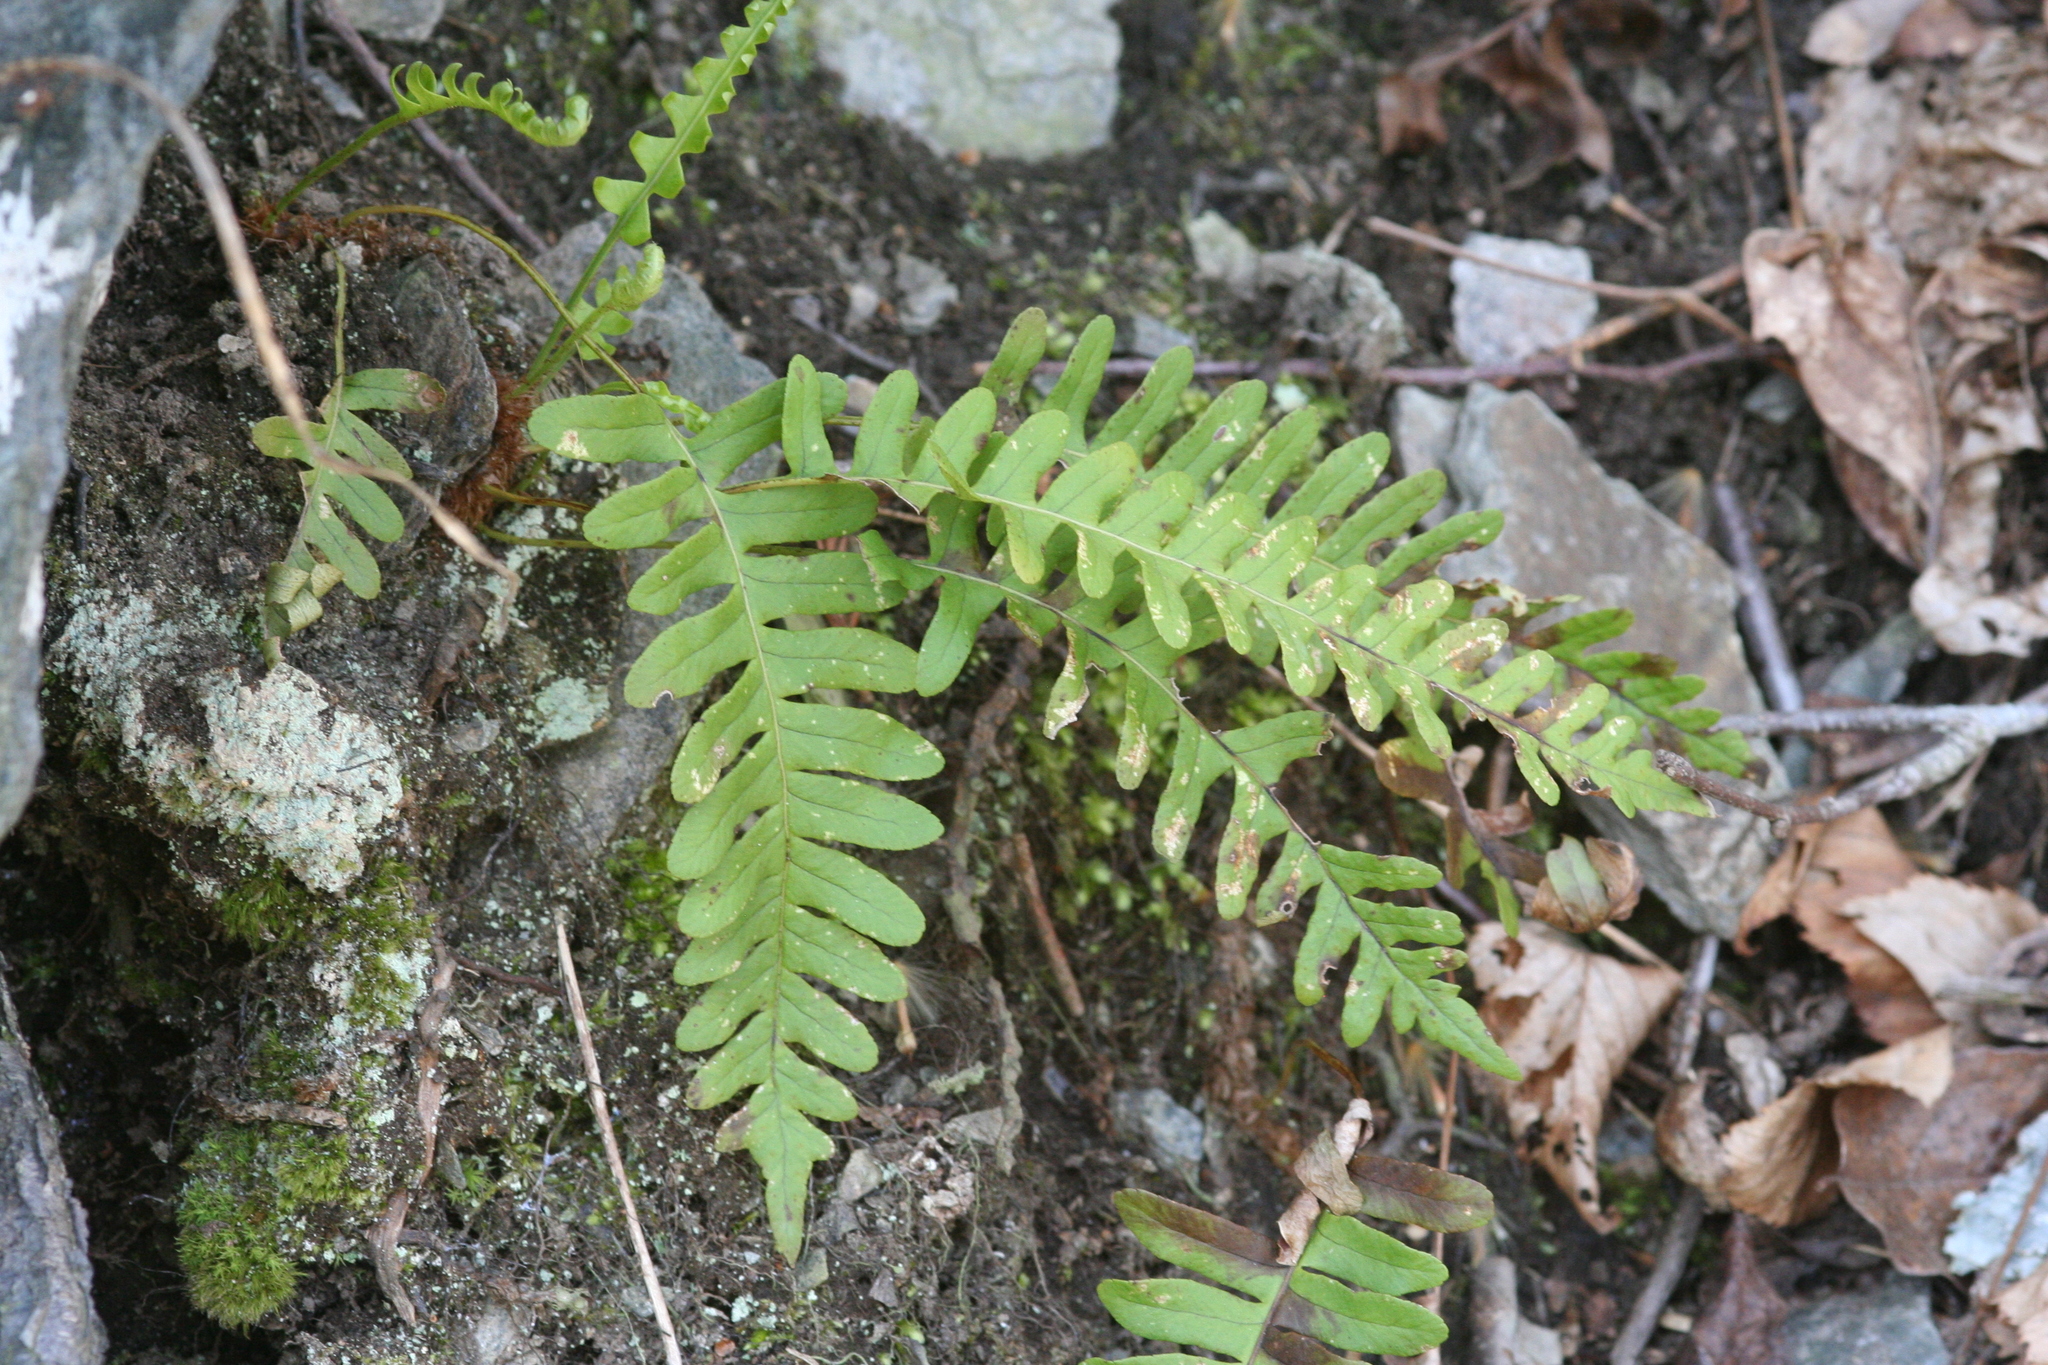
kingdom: Plantae
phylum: Tracheophyta
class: Polypodiopsida
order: Polypodiales
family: Polypodiaceae
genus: Polypodium
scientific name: Polypodium virginianum
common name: American wall fern
